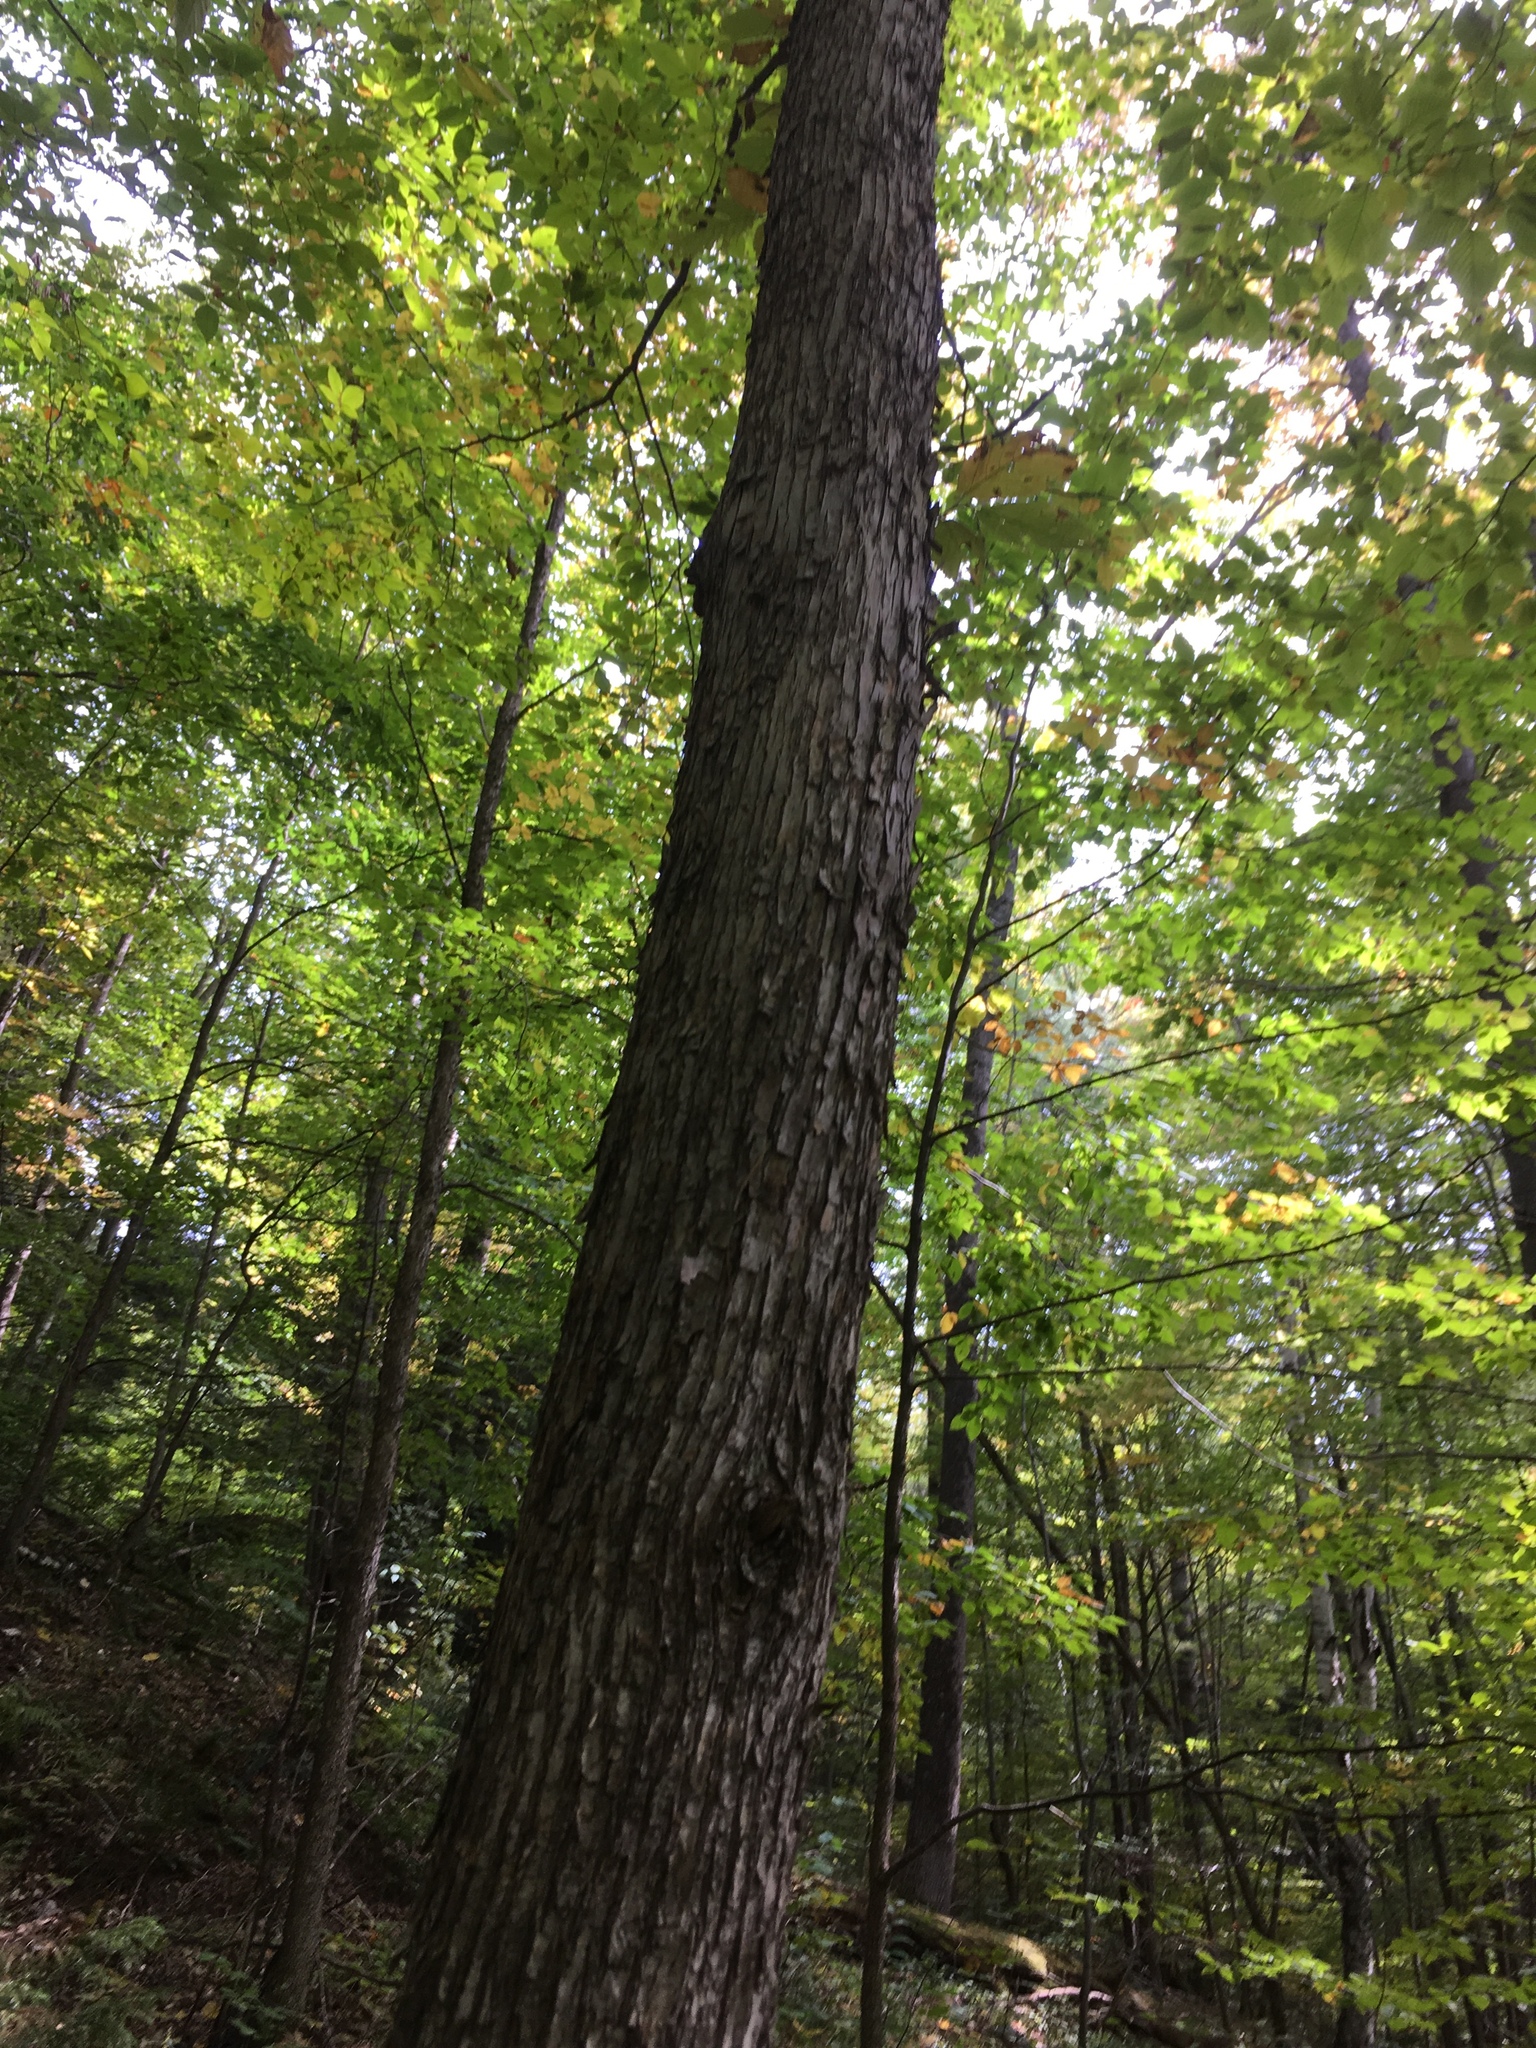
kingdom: Plantae
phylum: Tracheophyta
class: Magnoliopsida
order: Fagales
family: Betulaceae
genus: Ostrya
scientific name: Ostrya virginiana
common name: Ironwood
